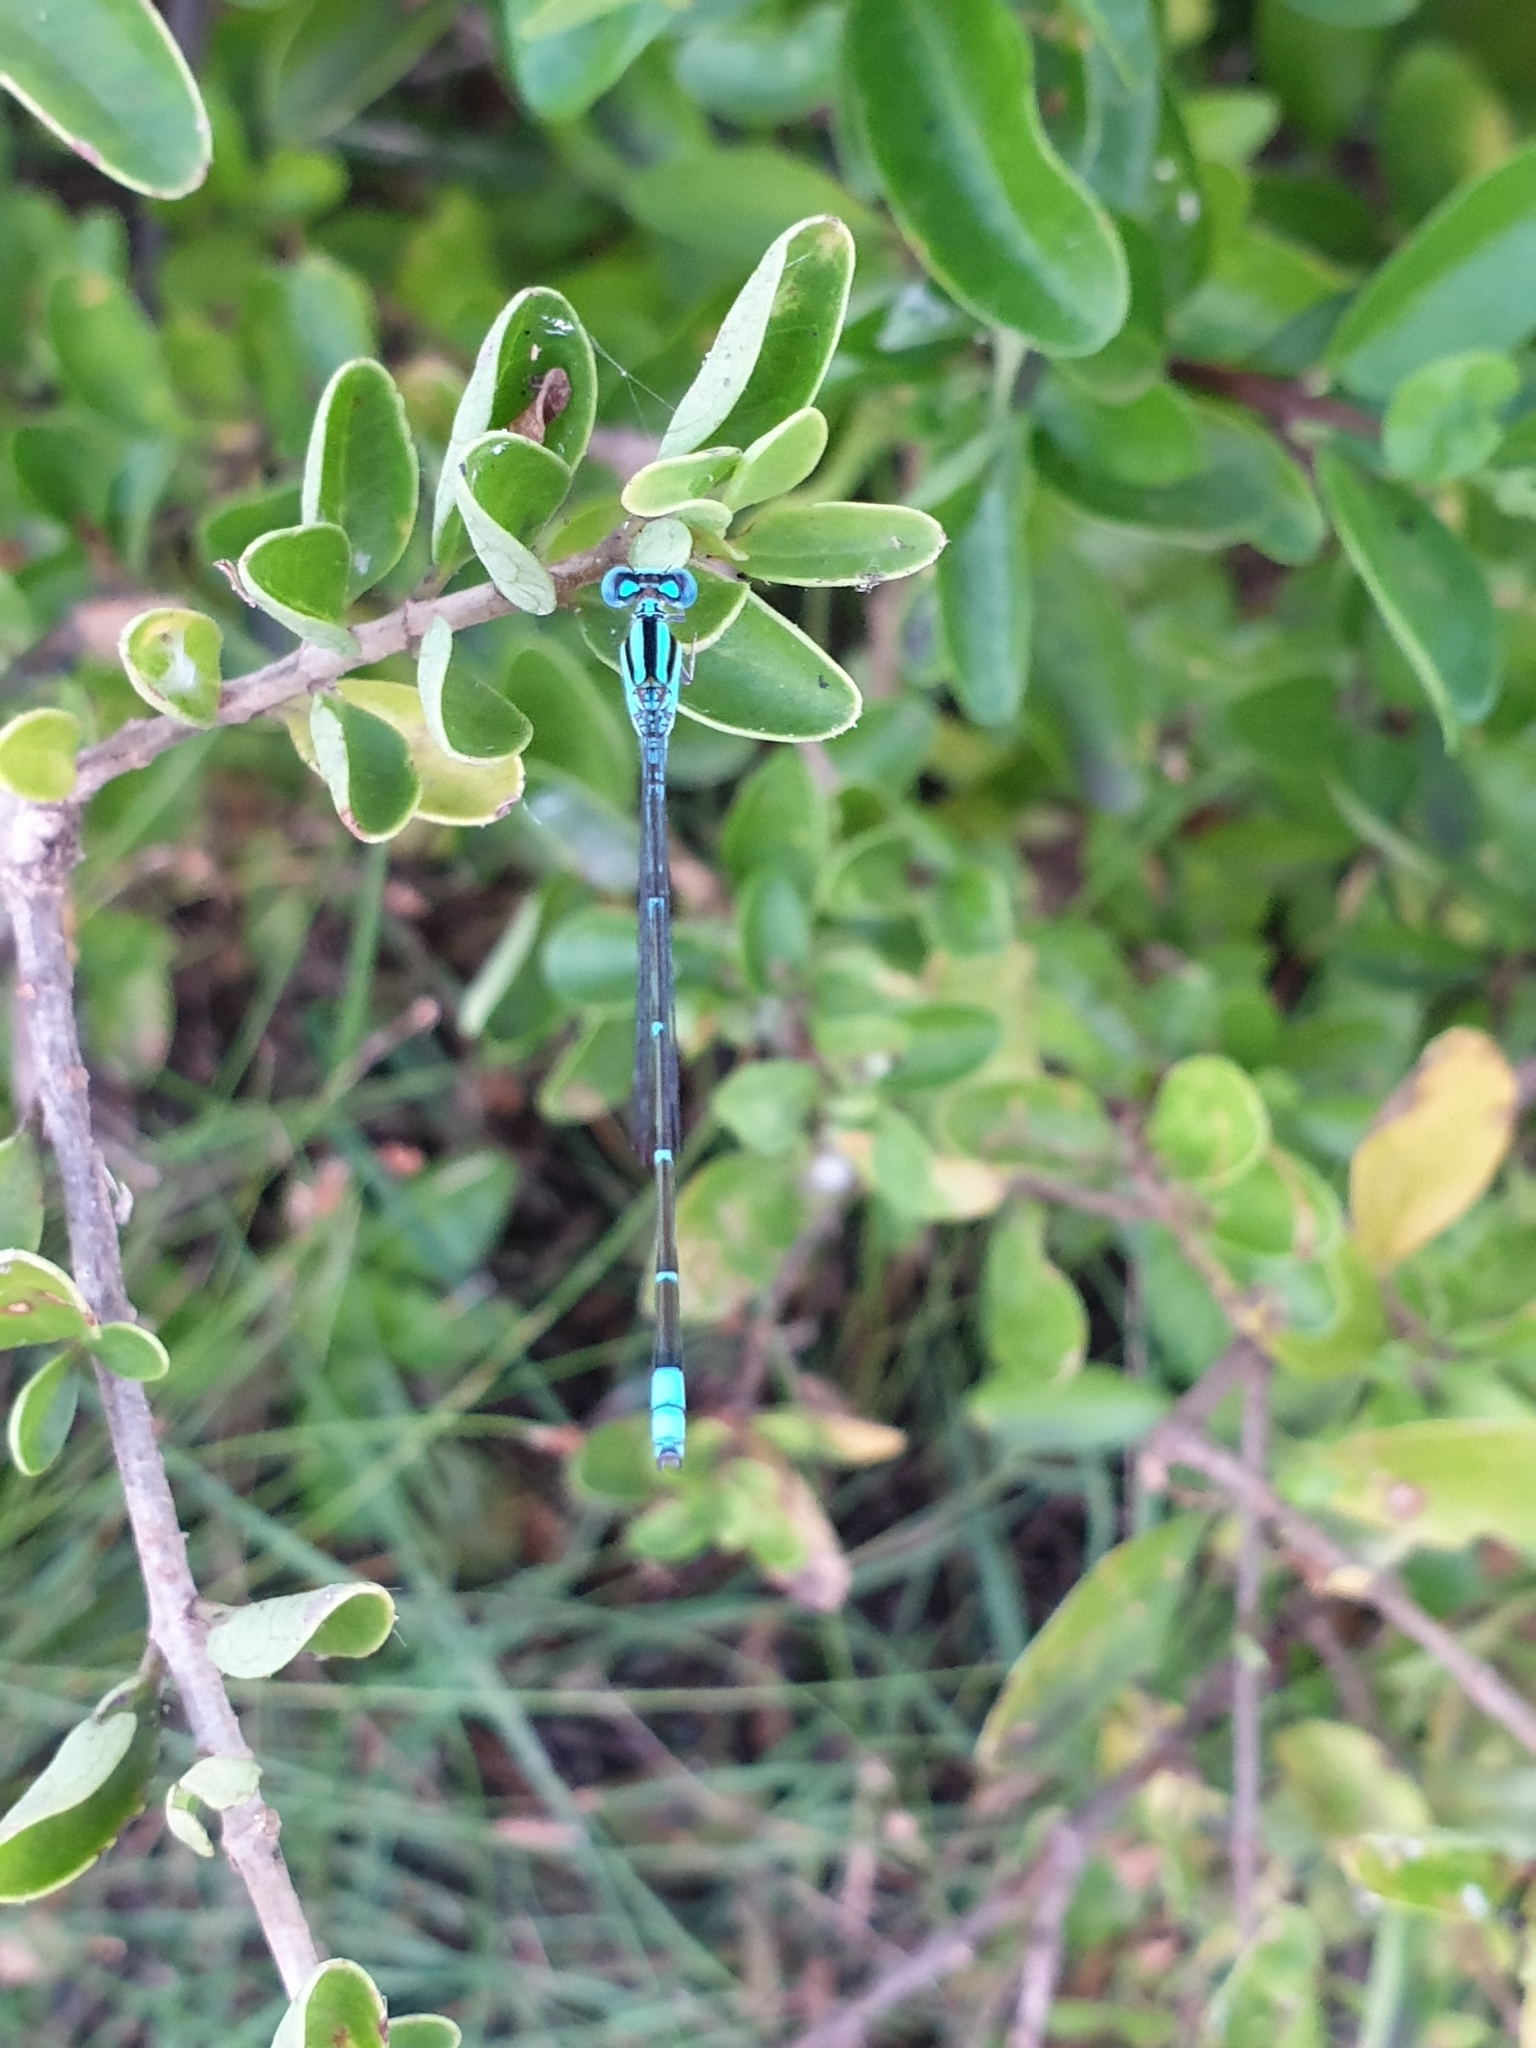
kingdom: Animalia
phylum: Arthropoda
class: Insecta
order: Odonata
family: Coenagrionidae
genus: Pseudagrion
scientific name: Pseudagrion microcephalum
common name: Blue riverdamsel
